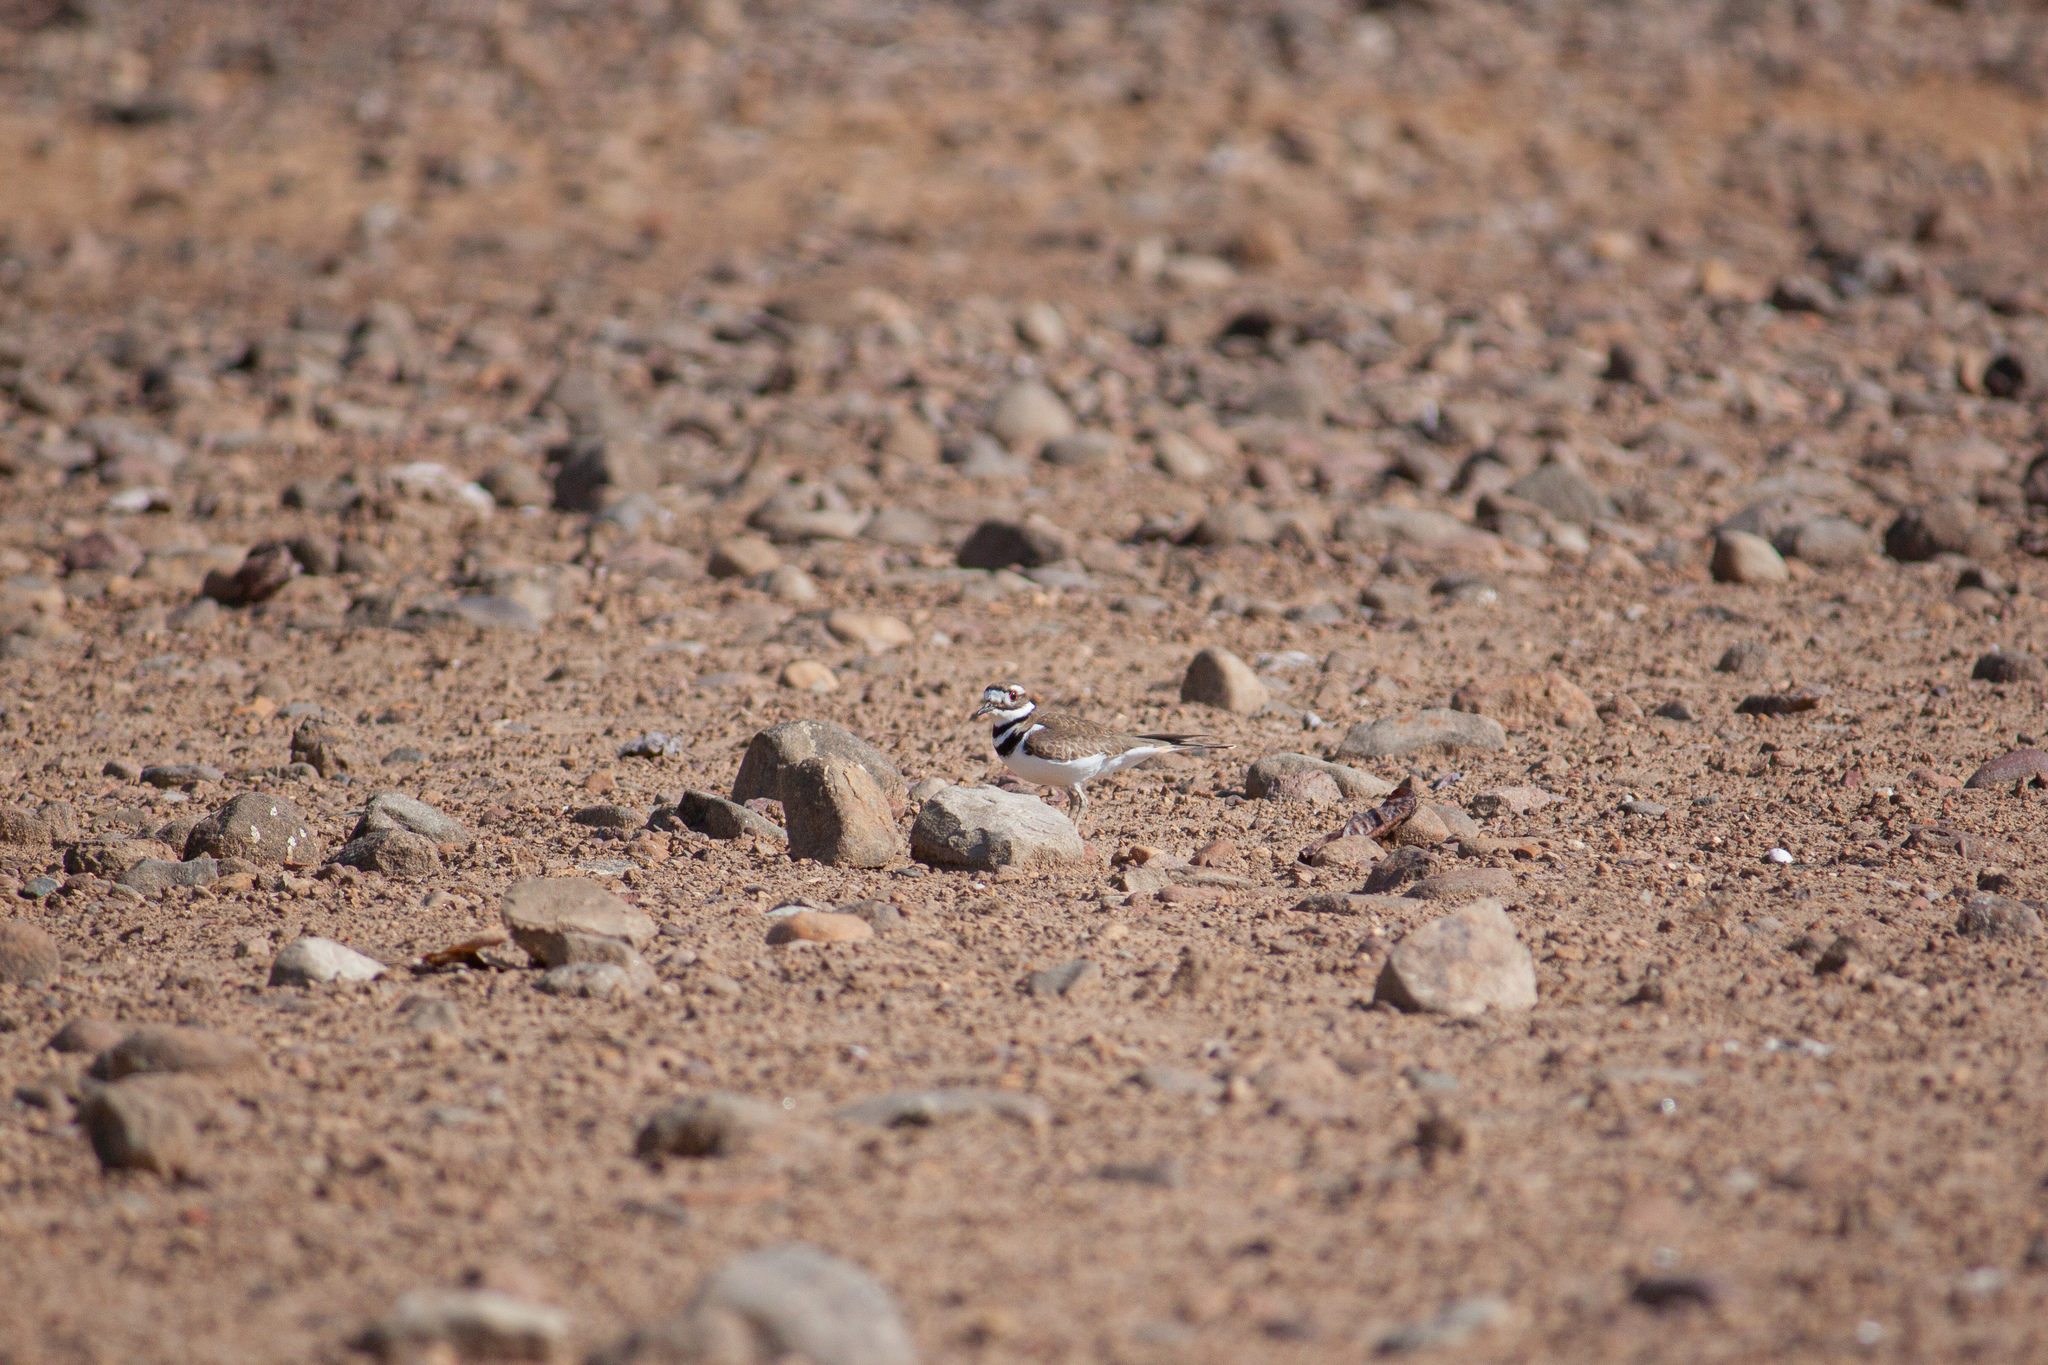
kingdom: Animalia
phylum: Chordata
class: Aves
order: Charadriiformes
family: Charadriidae
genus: Charadrius
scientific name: Charadrius vociferus
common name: Killdeer
